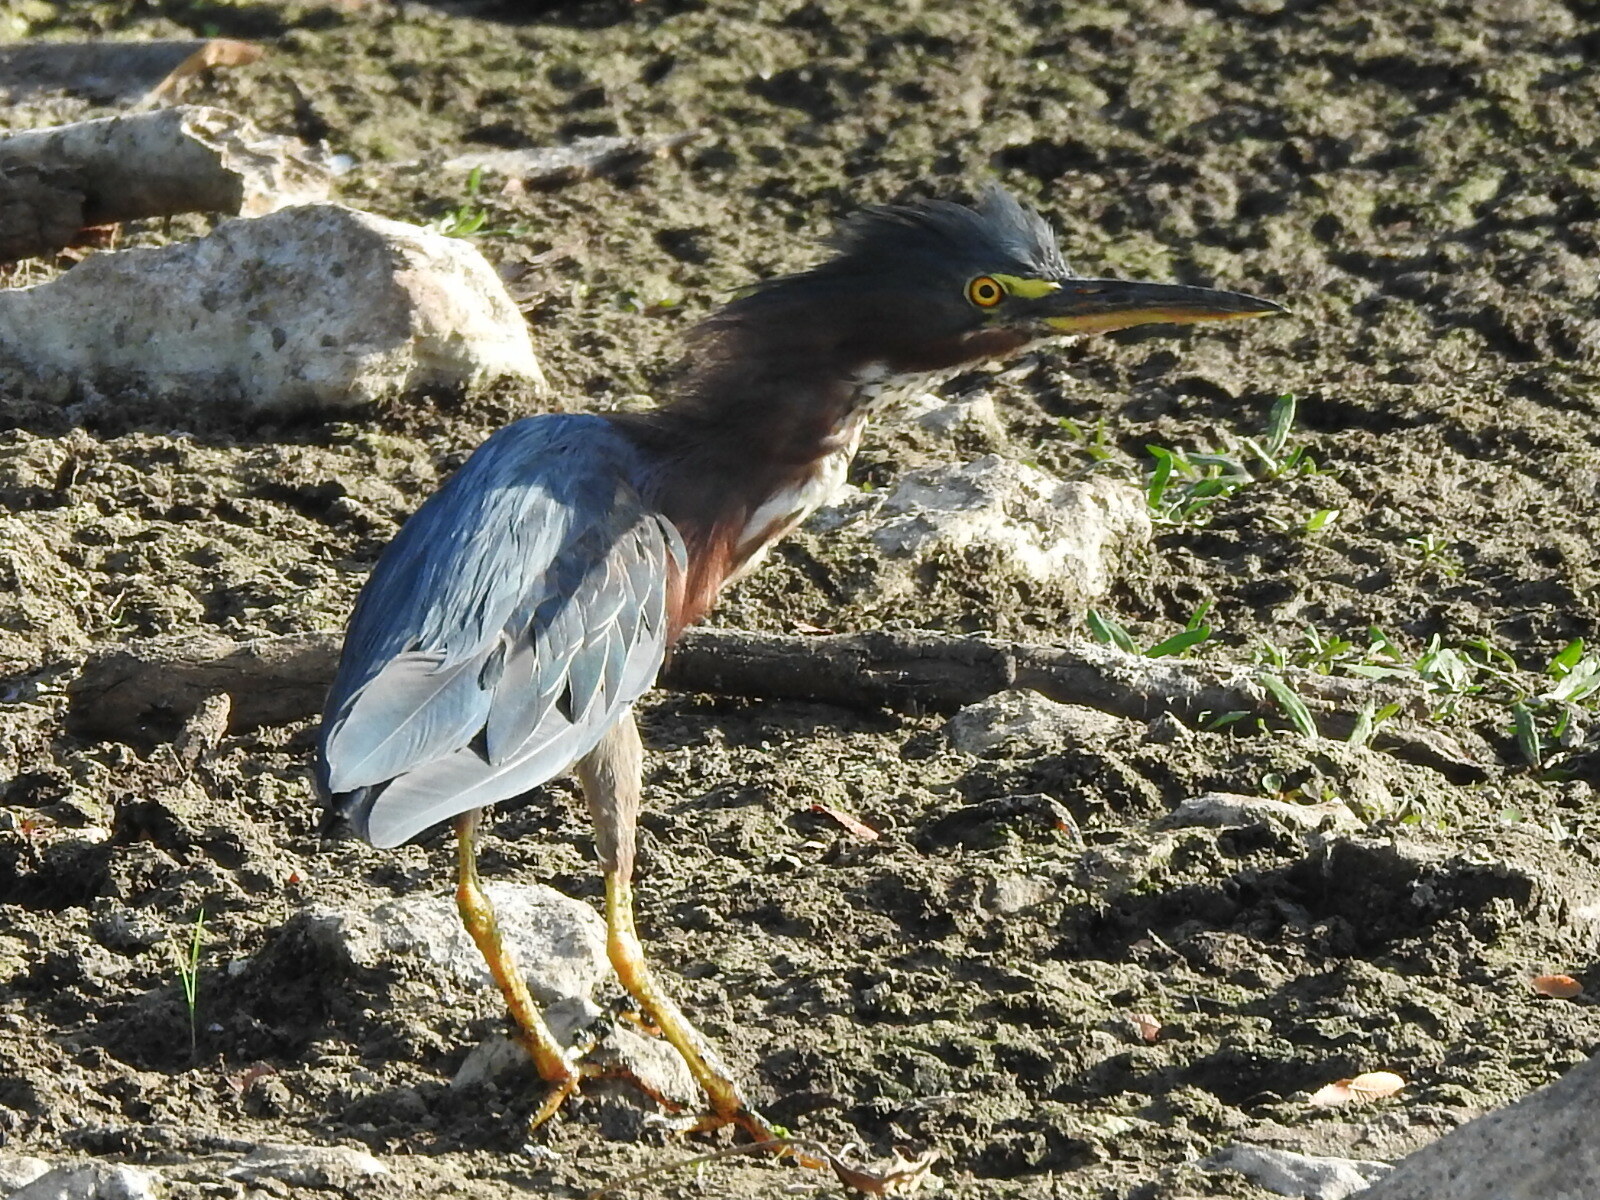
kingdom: Animalia
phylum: Chordata
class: Aves
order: Pelecaniformes
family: Ardeidae
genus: Butorides
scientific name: Butorides virescens
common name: Green heron
